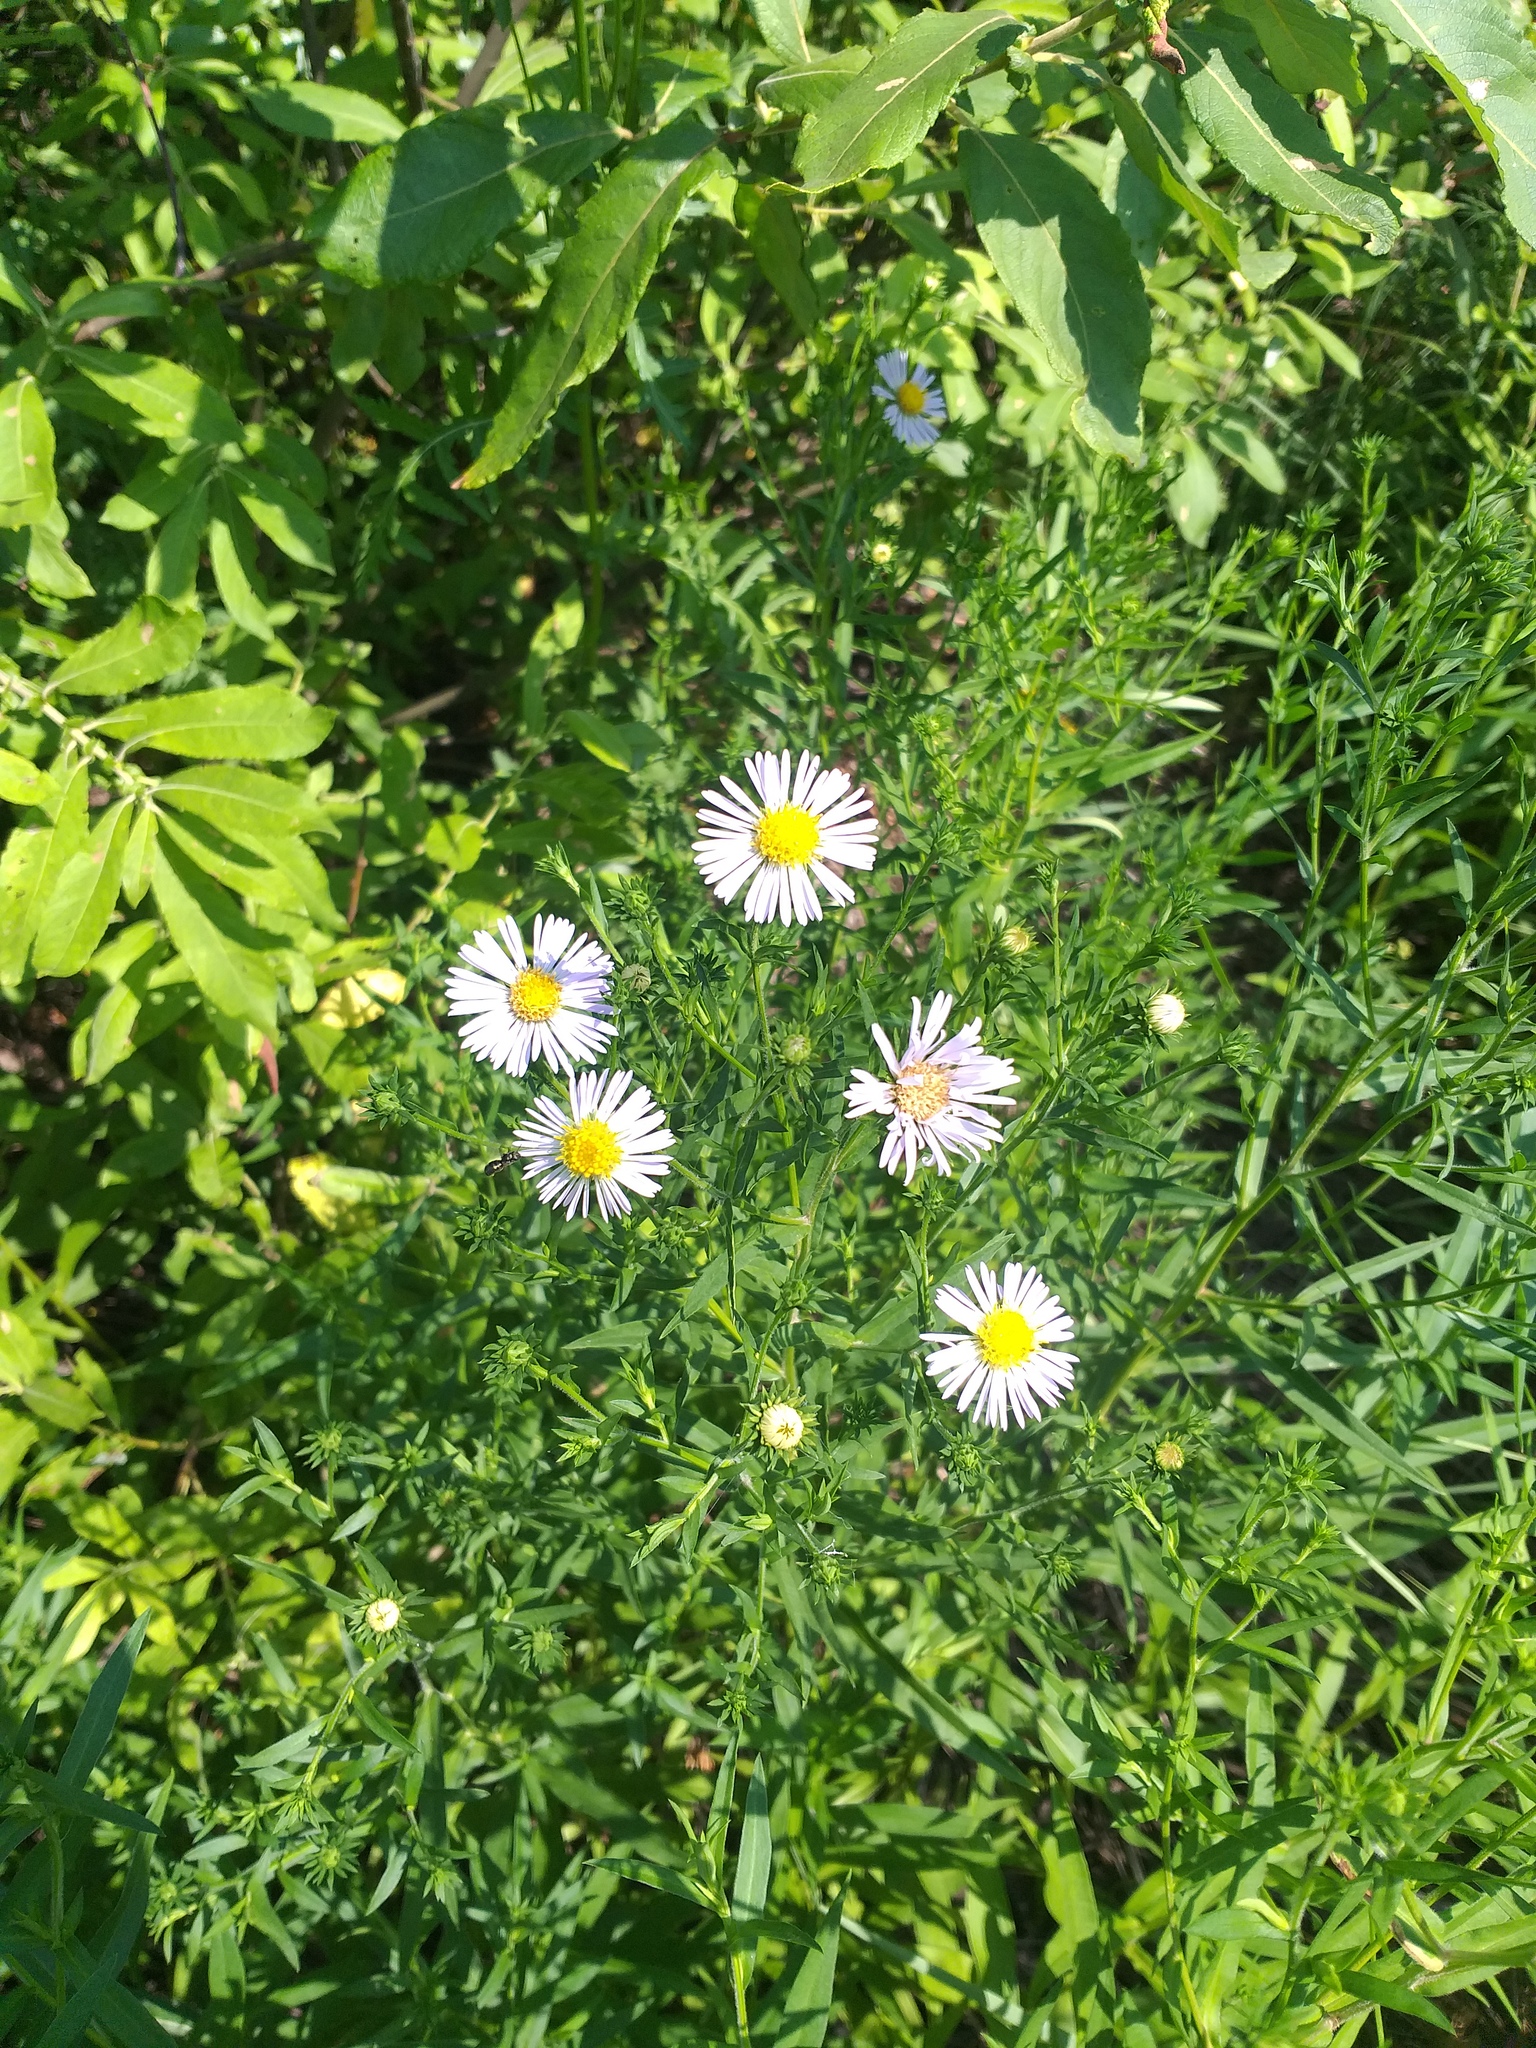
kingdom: Plantae
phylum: Tracheophyta
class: Magnoliopsida
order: Asterales
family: Asteraceae
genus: Symphyotrichum
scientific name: Symphyotrichum novi-belgii
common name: Michaelmas daisy
